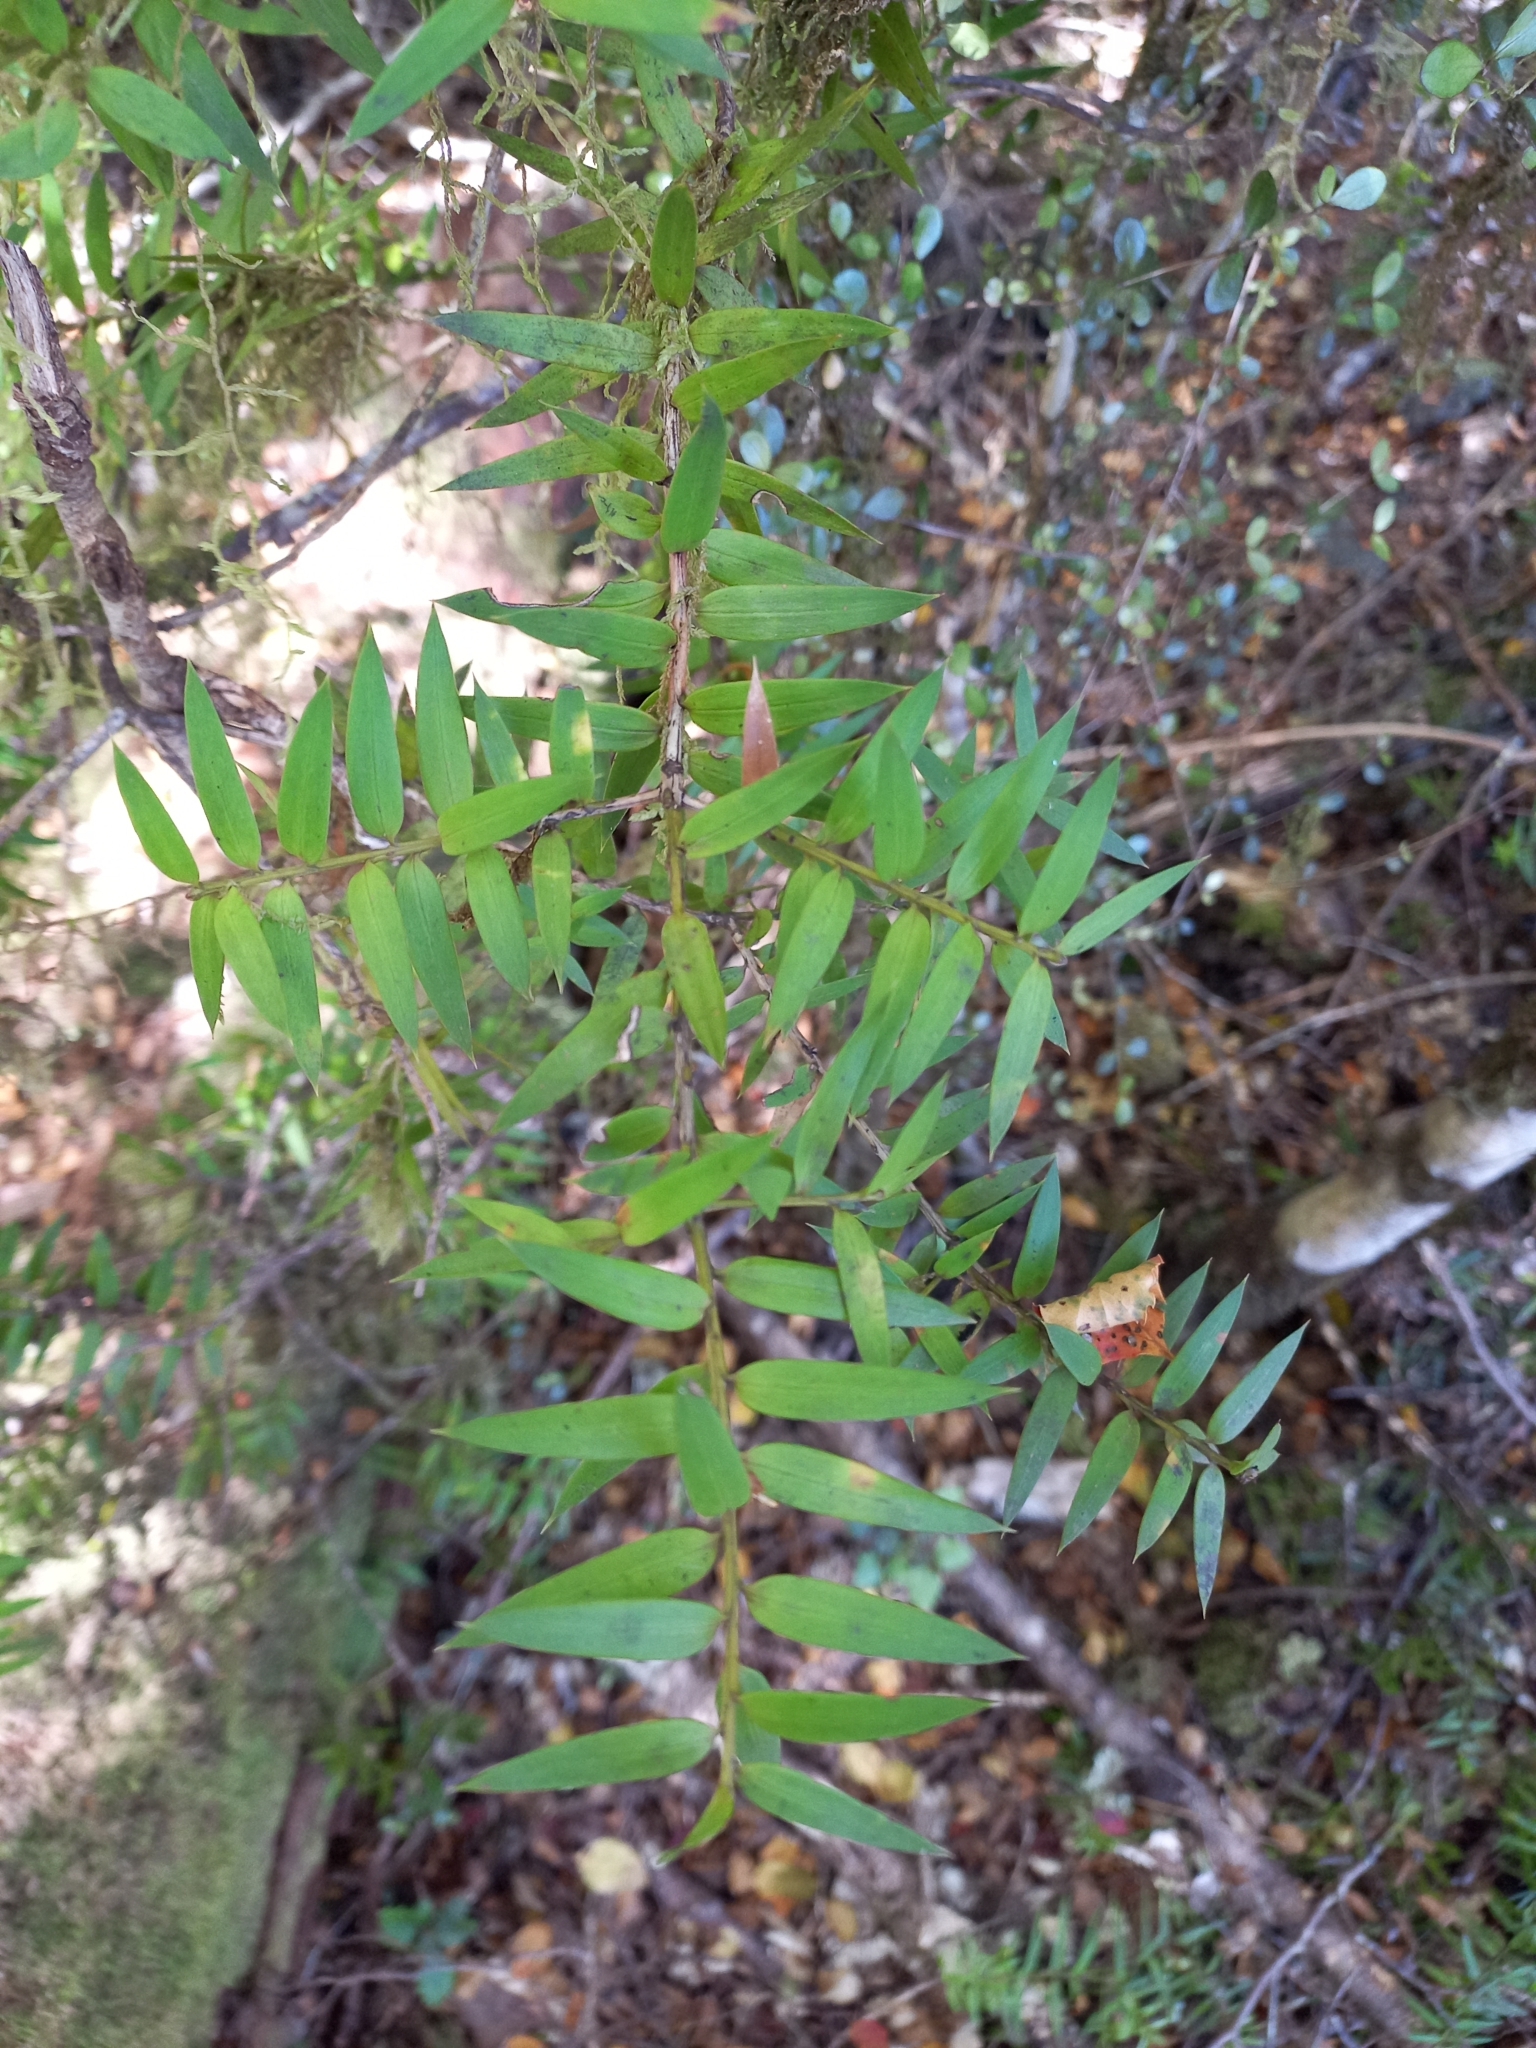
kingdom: Plantae
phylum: Tracheophyta
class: Pinopsida
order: Pinales
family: Podocarpaceae
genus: Podocarpus
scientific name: Podocarpus totara
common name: Totara
